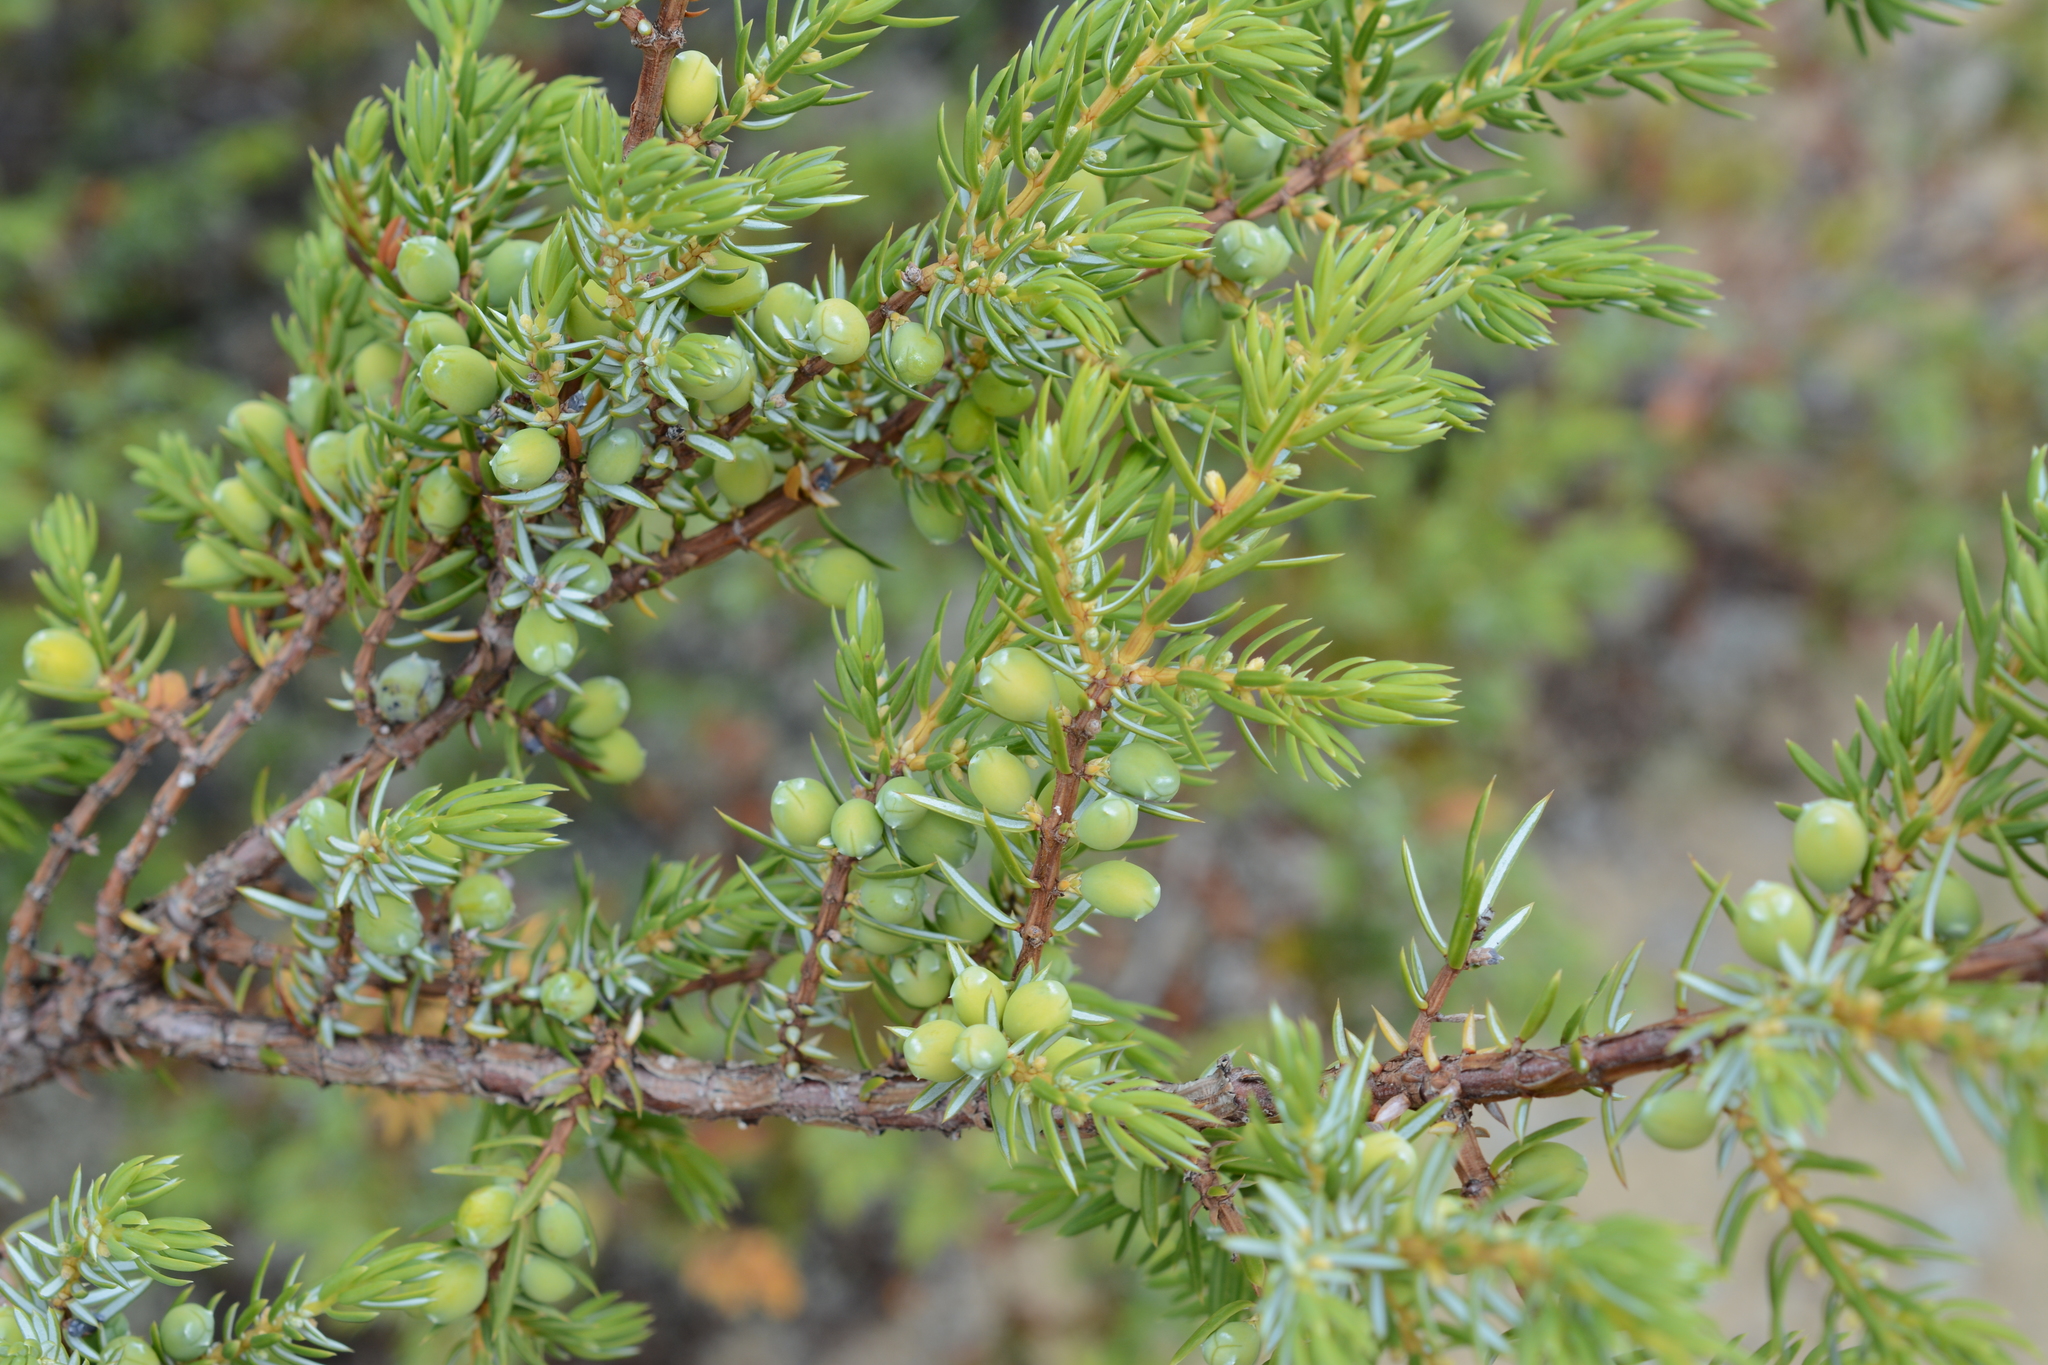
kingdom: Plantae
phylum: Tracheophyta
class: Pinopsida
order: Pinales
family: Cupressaceae
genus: Juniperus
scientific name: Juniperus communis
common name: Common juniper
